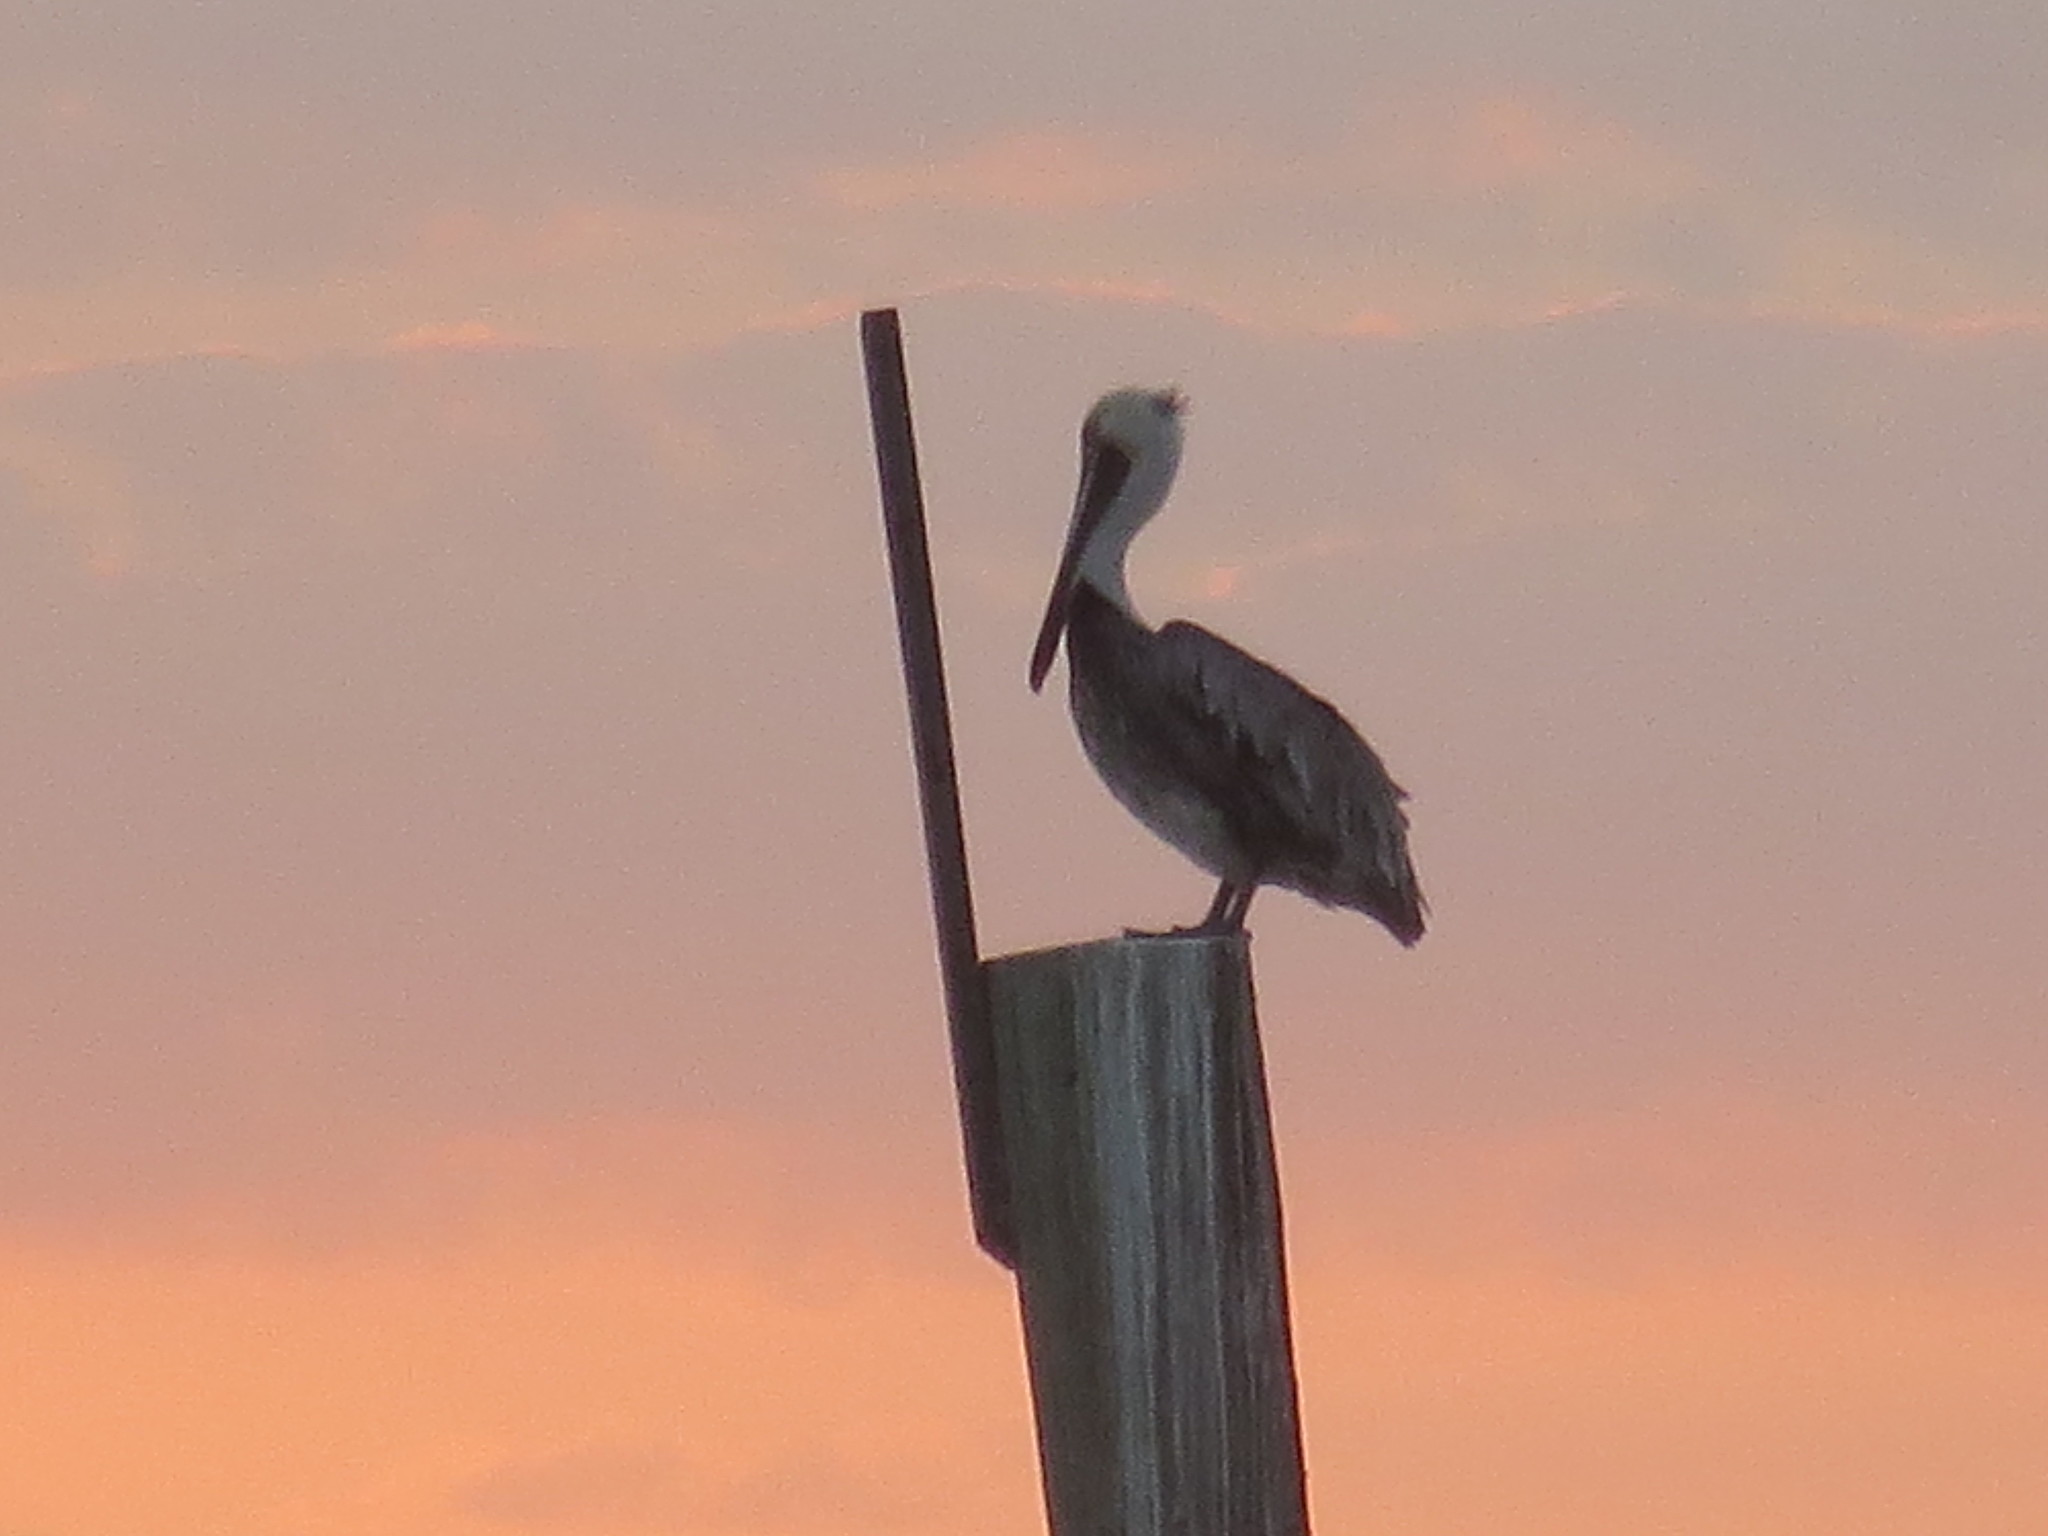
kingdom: Animalia
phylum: Chordata
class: Aves
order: Pelecaniformes
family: Pelecanidae
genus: Pelecanus
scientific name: Pelecanus occidentalis
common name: Brown pelican
